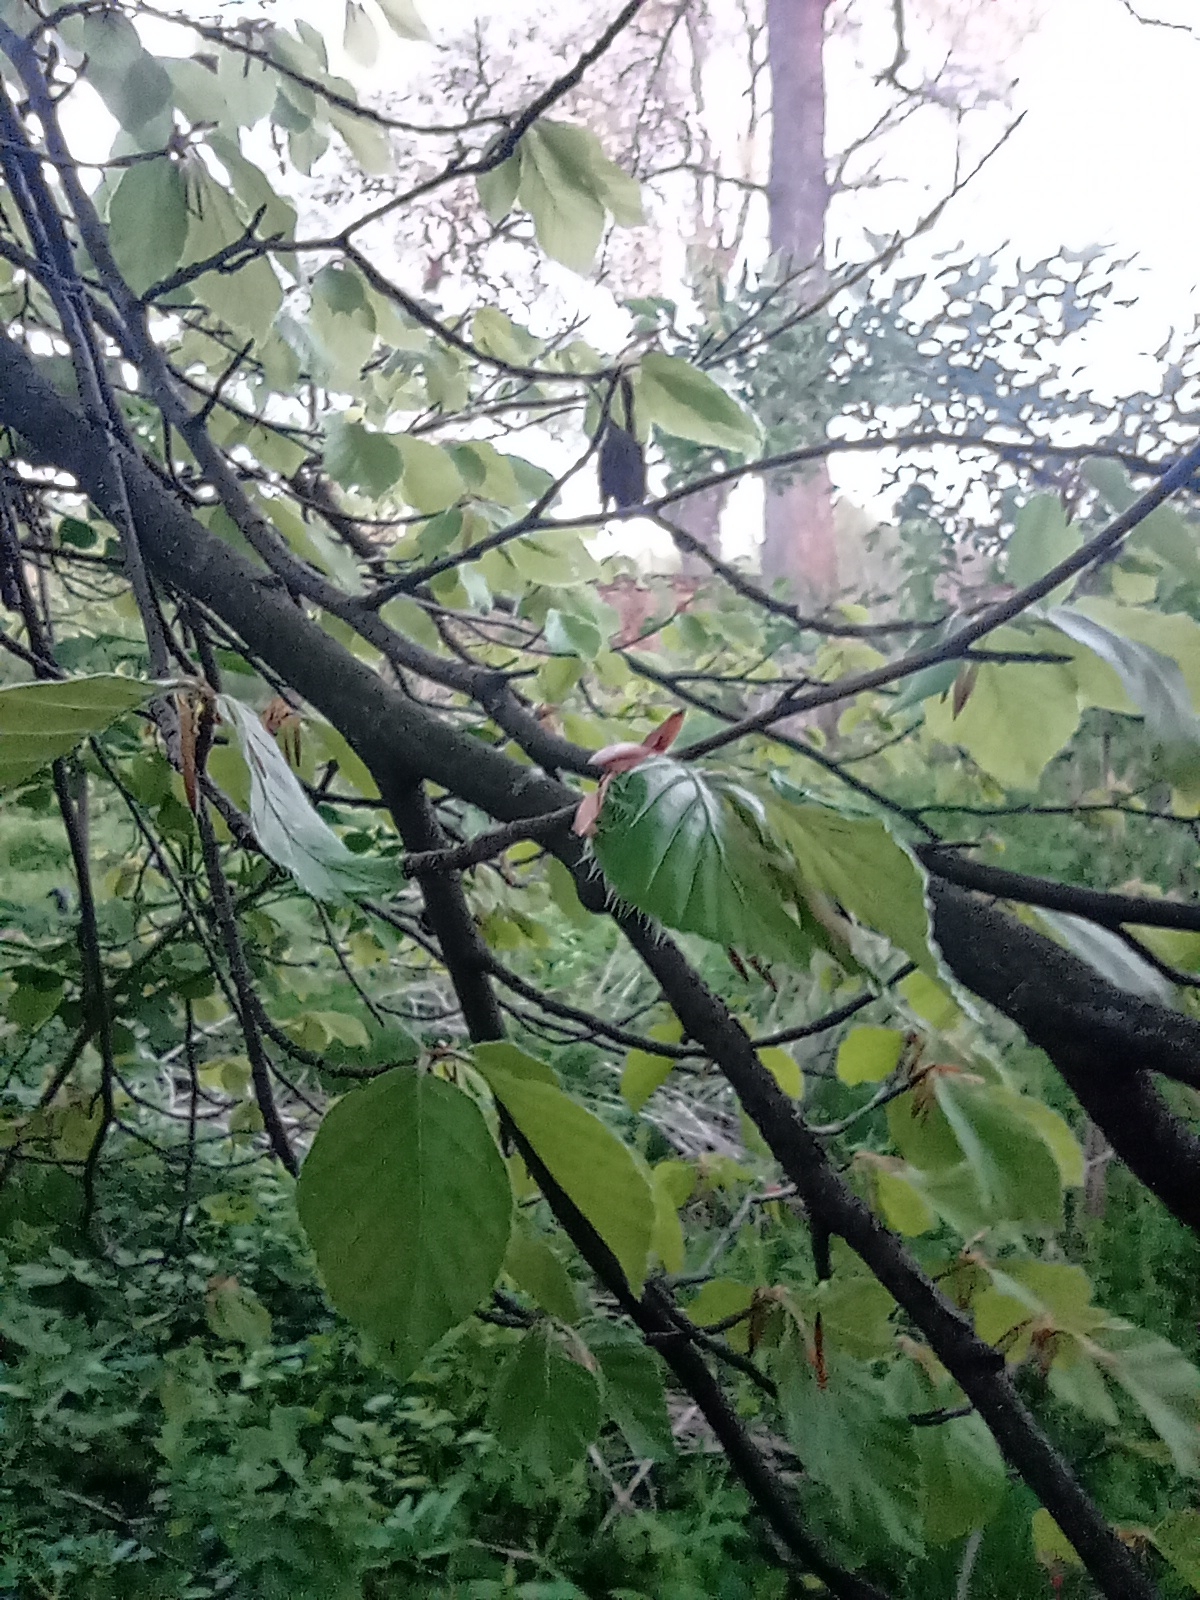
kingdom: Plantae
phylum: Tracheophyta
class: Magnoliopsida
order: Fagales
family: Fagaceae
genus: Fagus
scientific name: Fagus sylvatica
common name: Beech
